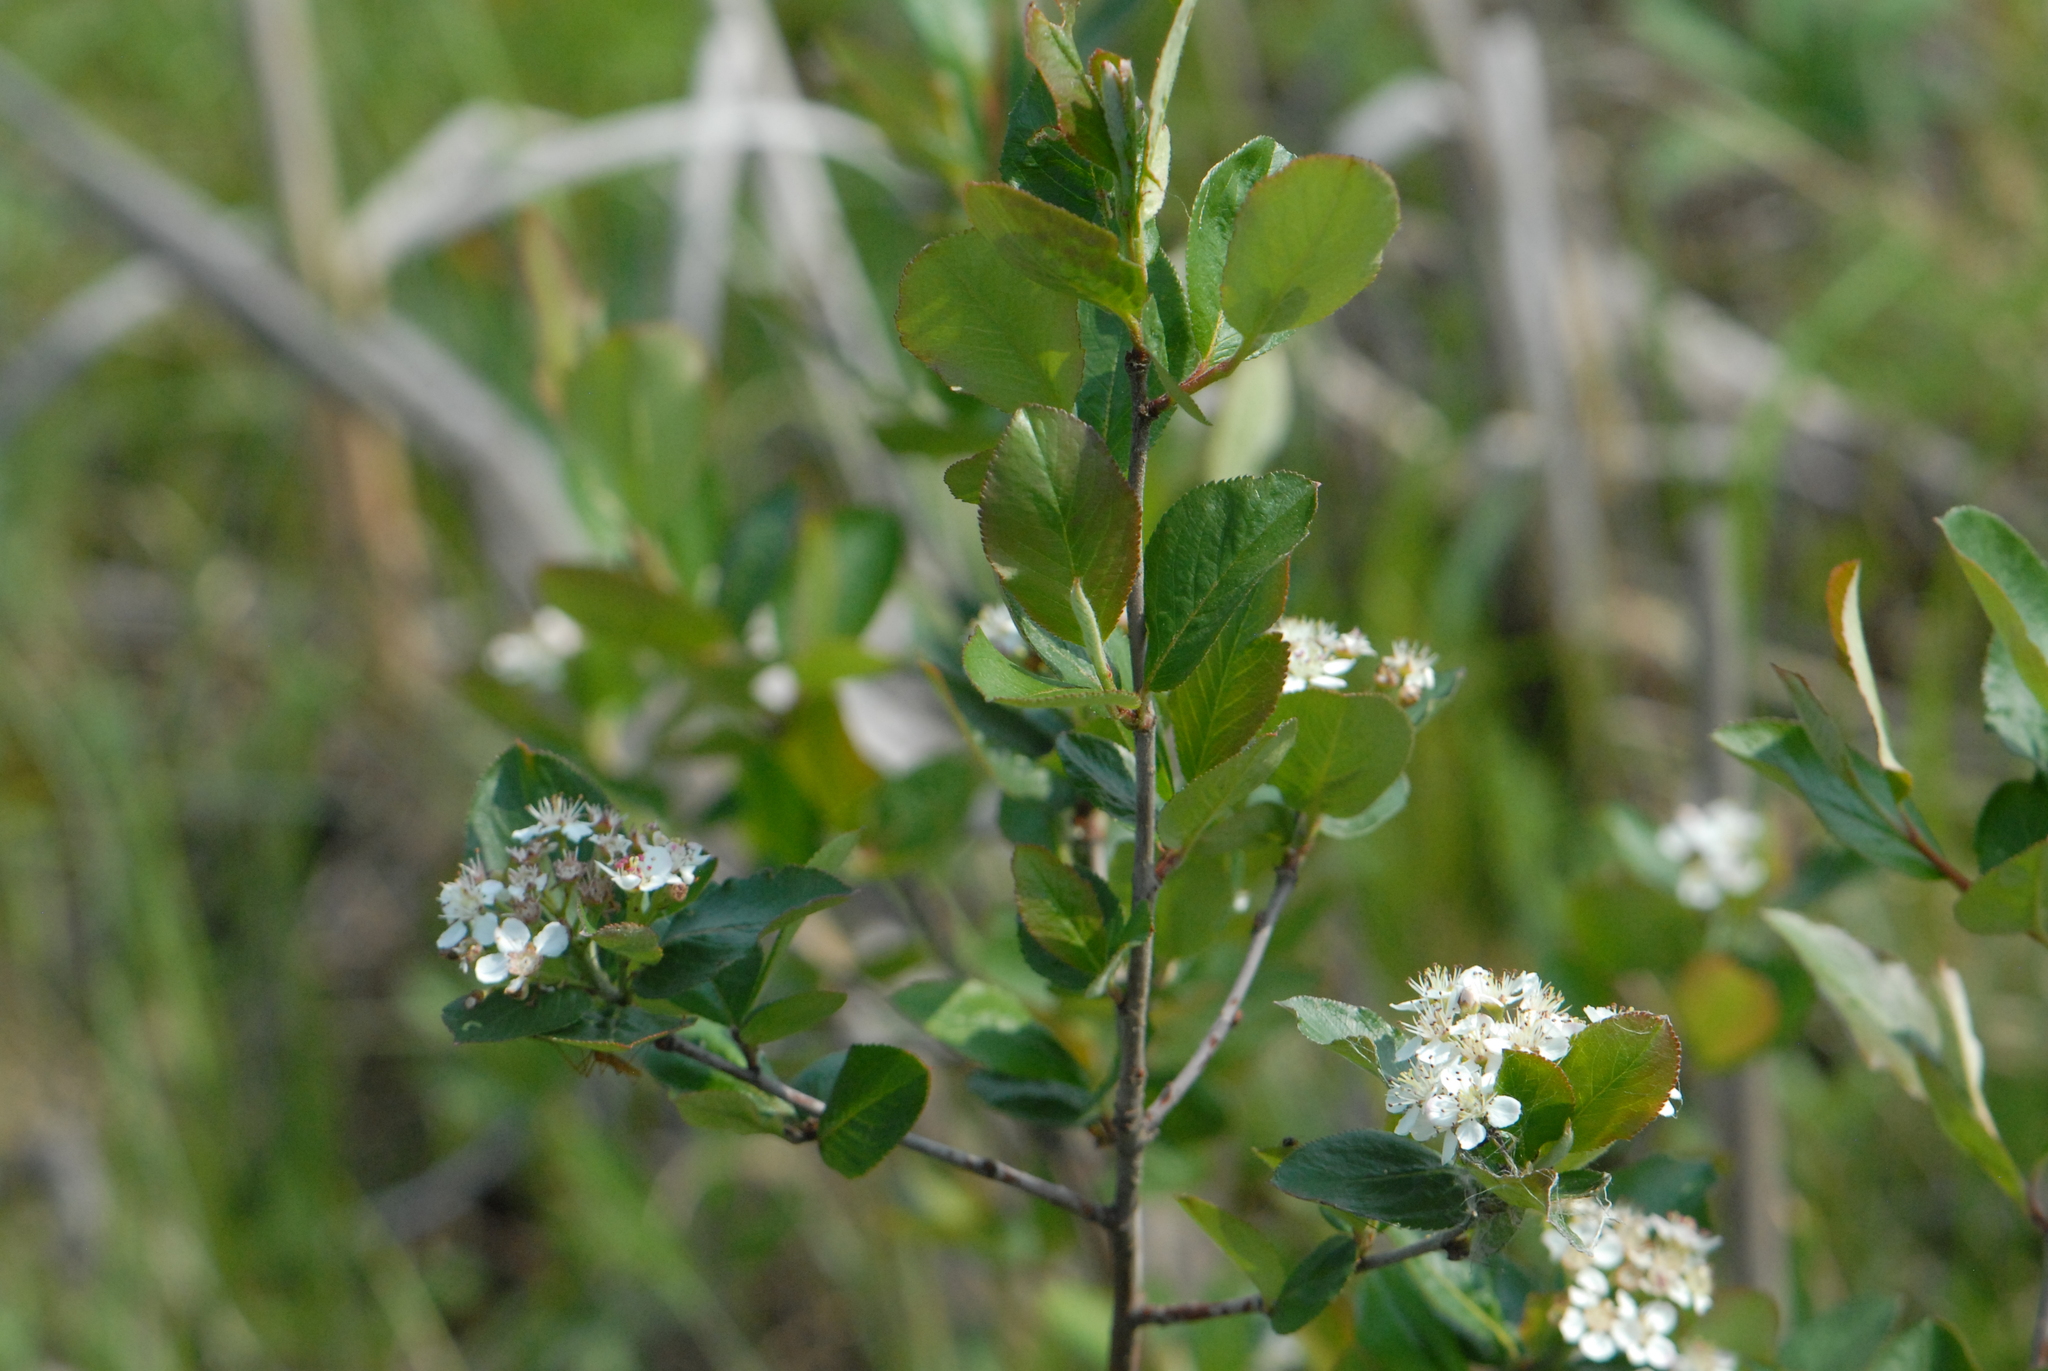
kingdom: Plantae
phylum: Tracheophyta
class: Magnoliopsida
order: Rosales
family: Rosaceae
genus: Sorbaronia
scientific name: Sorbaronia arsenii
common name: Arsène's mountain-ash
